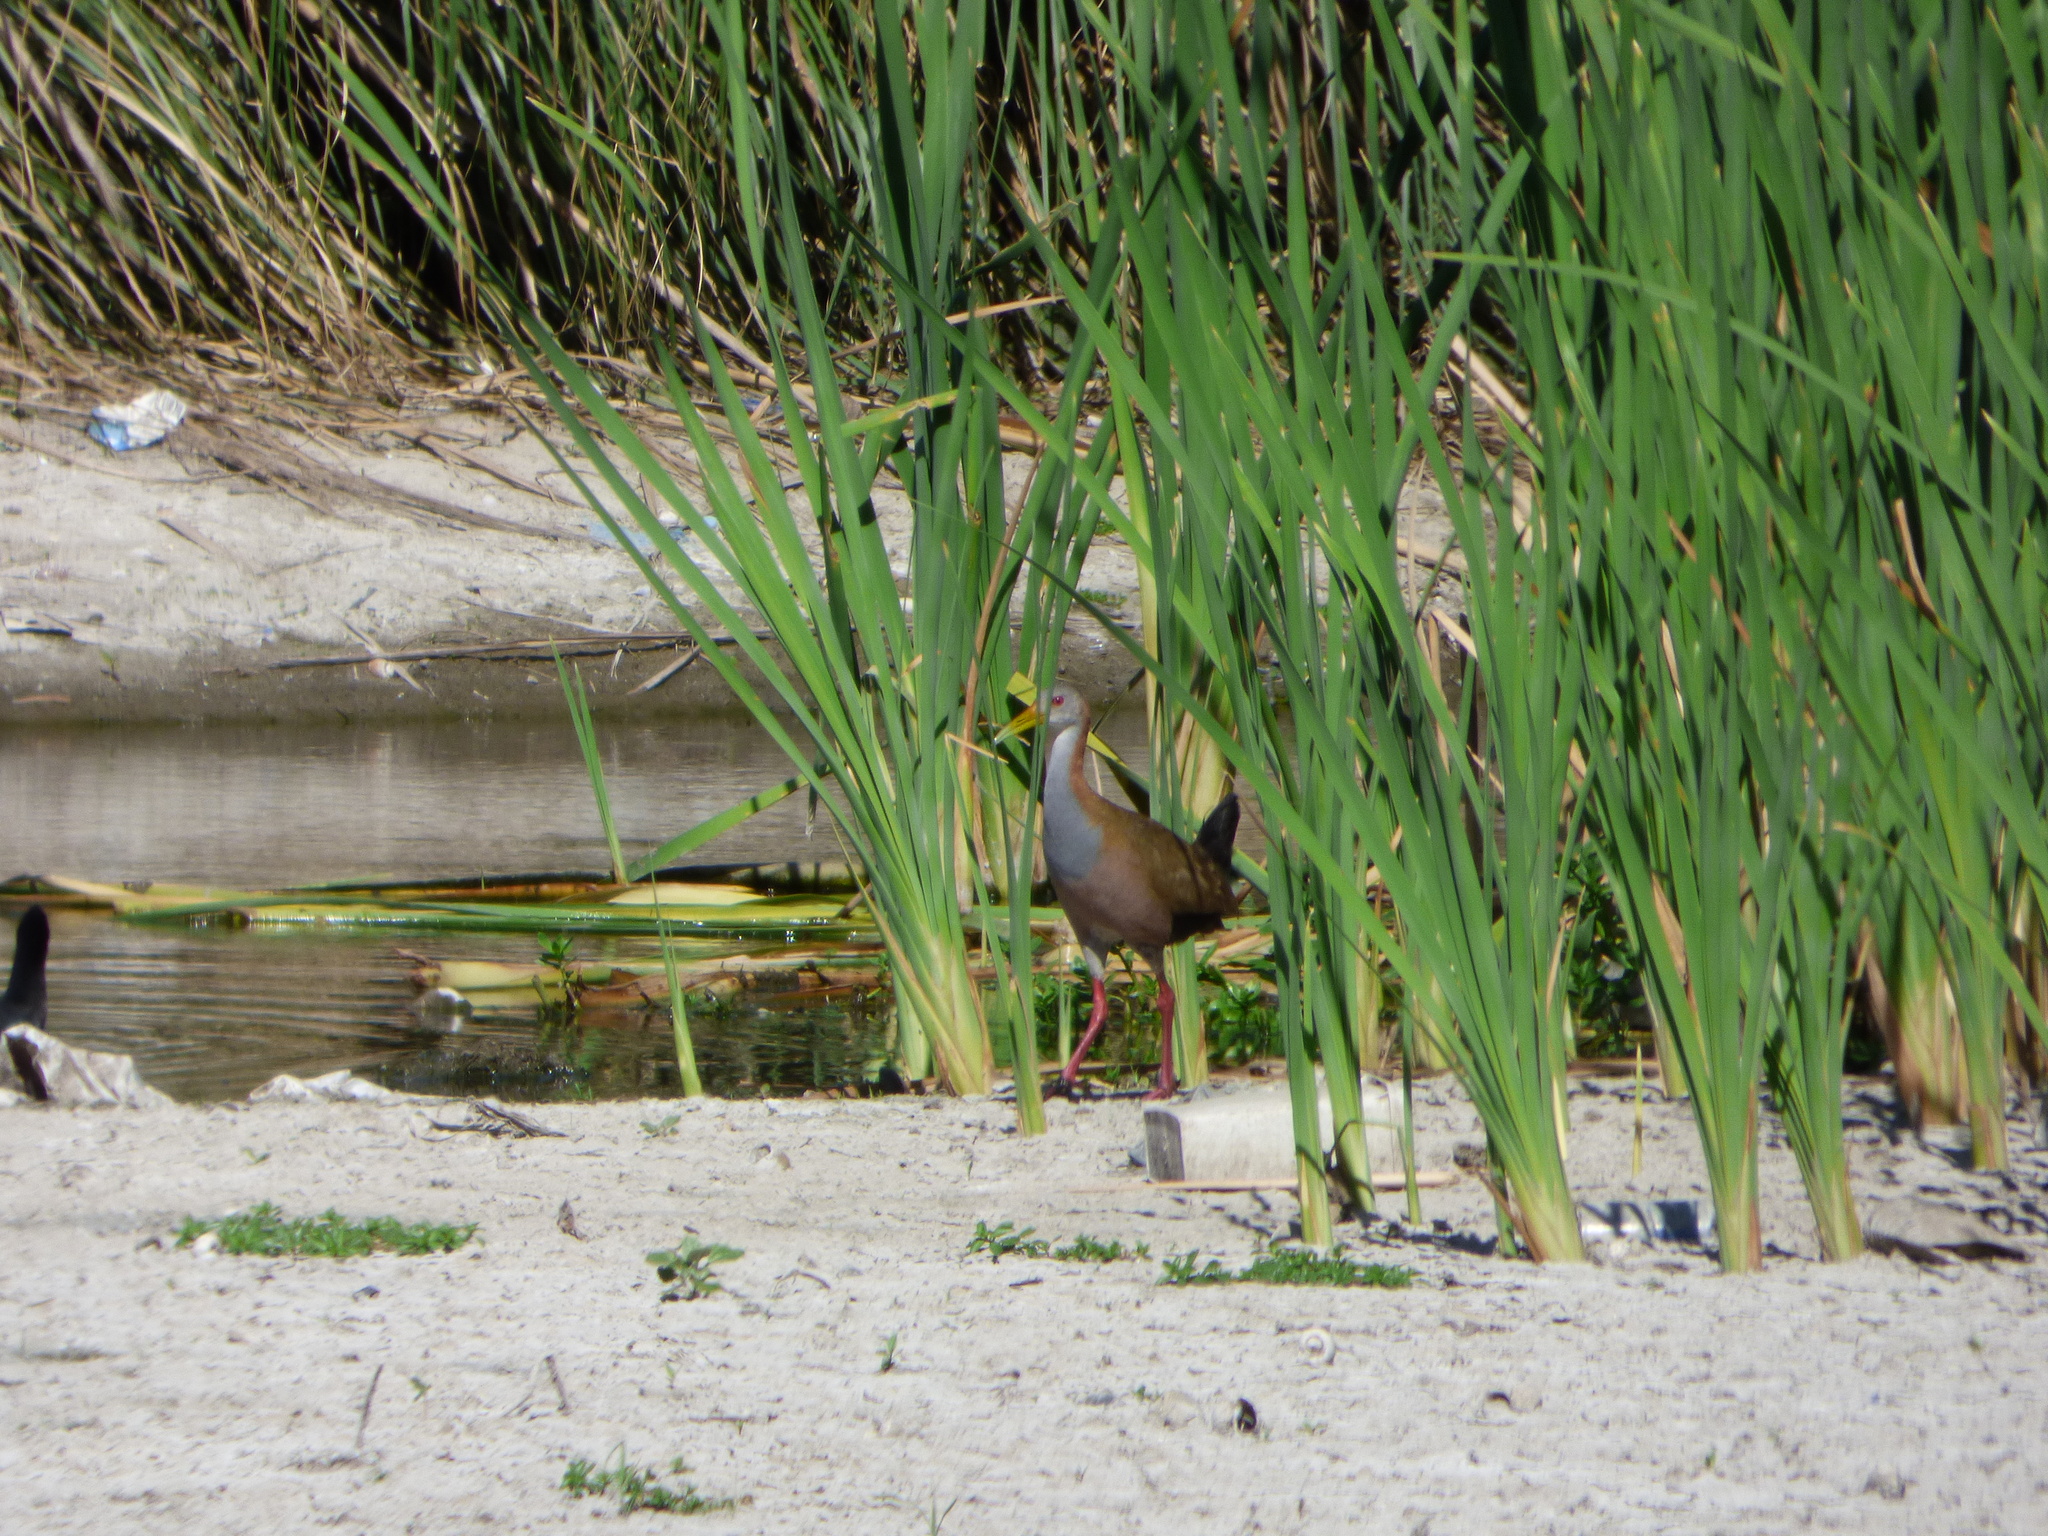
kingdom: Animalia
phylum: Chordata
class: Aves
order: Gruiformes
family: Rallidae
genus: Aramides
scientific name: Aramides ypecaha
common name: Giant wood rail
